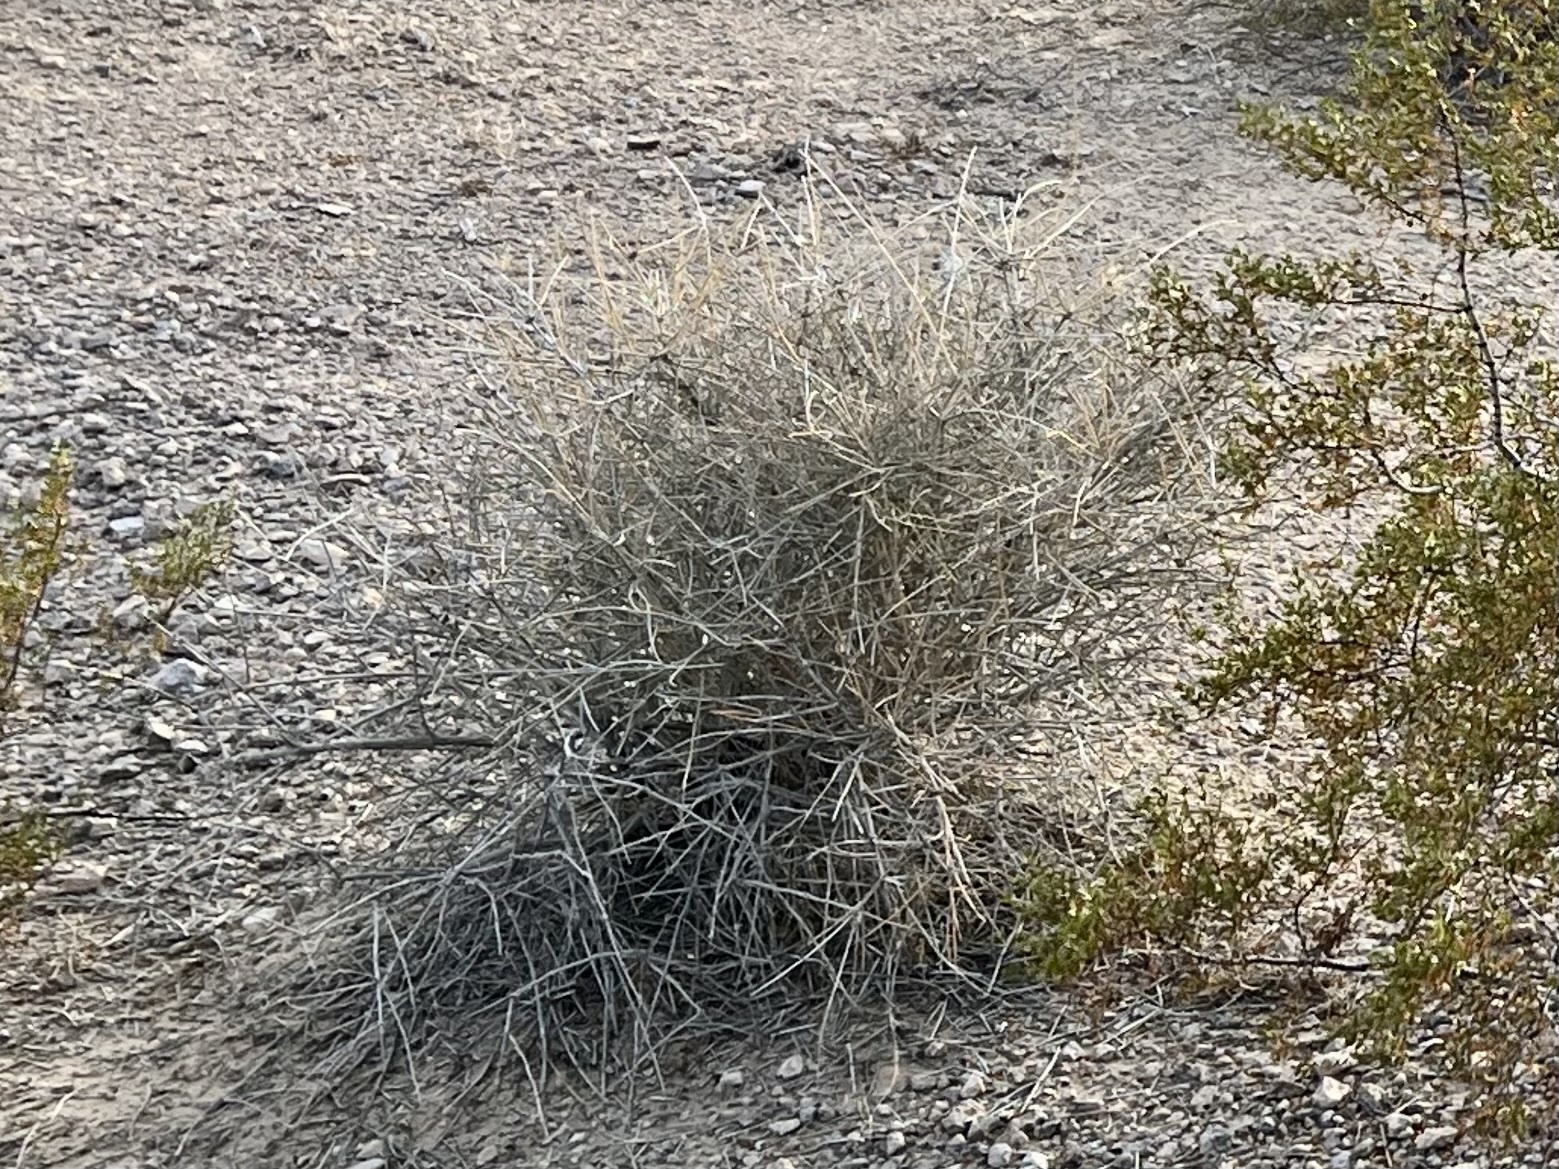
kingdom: Plantae
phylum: Tracheophyta
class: Gnetopsida
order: Ephedrales
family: Ephedraceae
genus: Ephedra
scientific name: Ephedra nevadensis
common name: Gray ephedra
